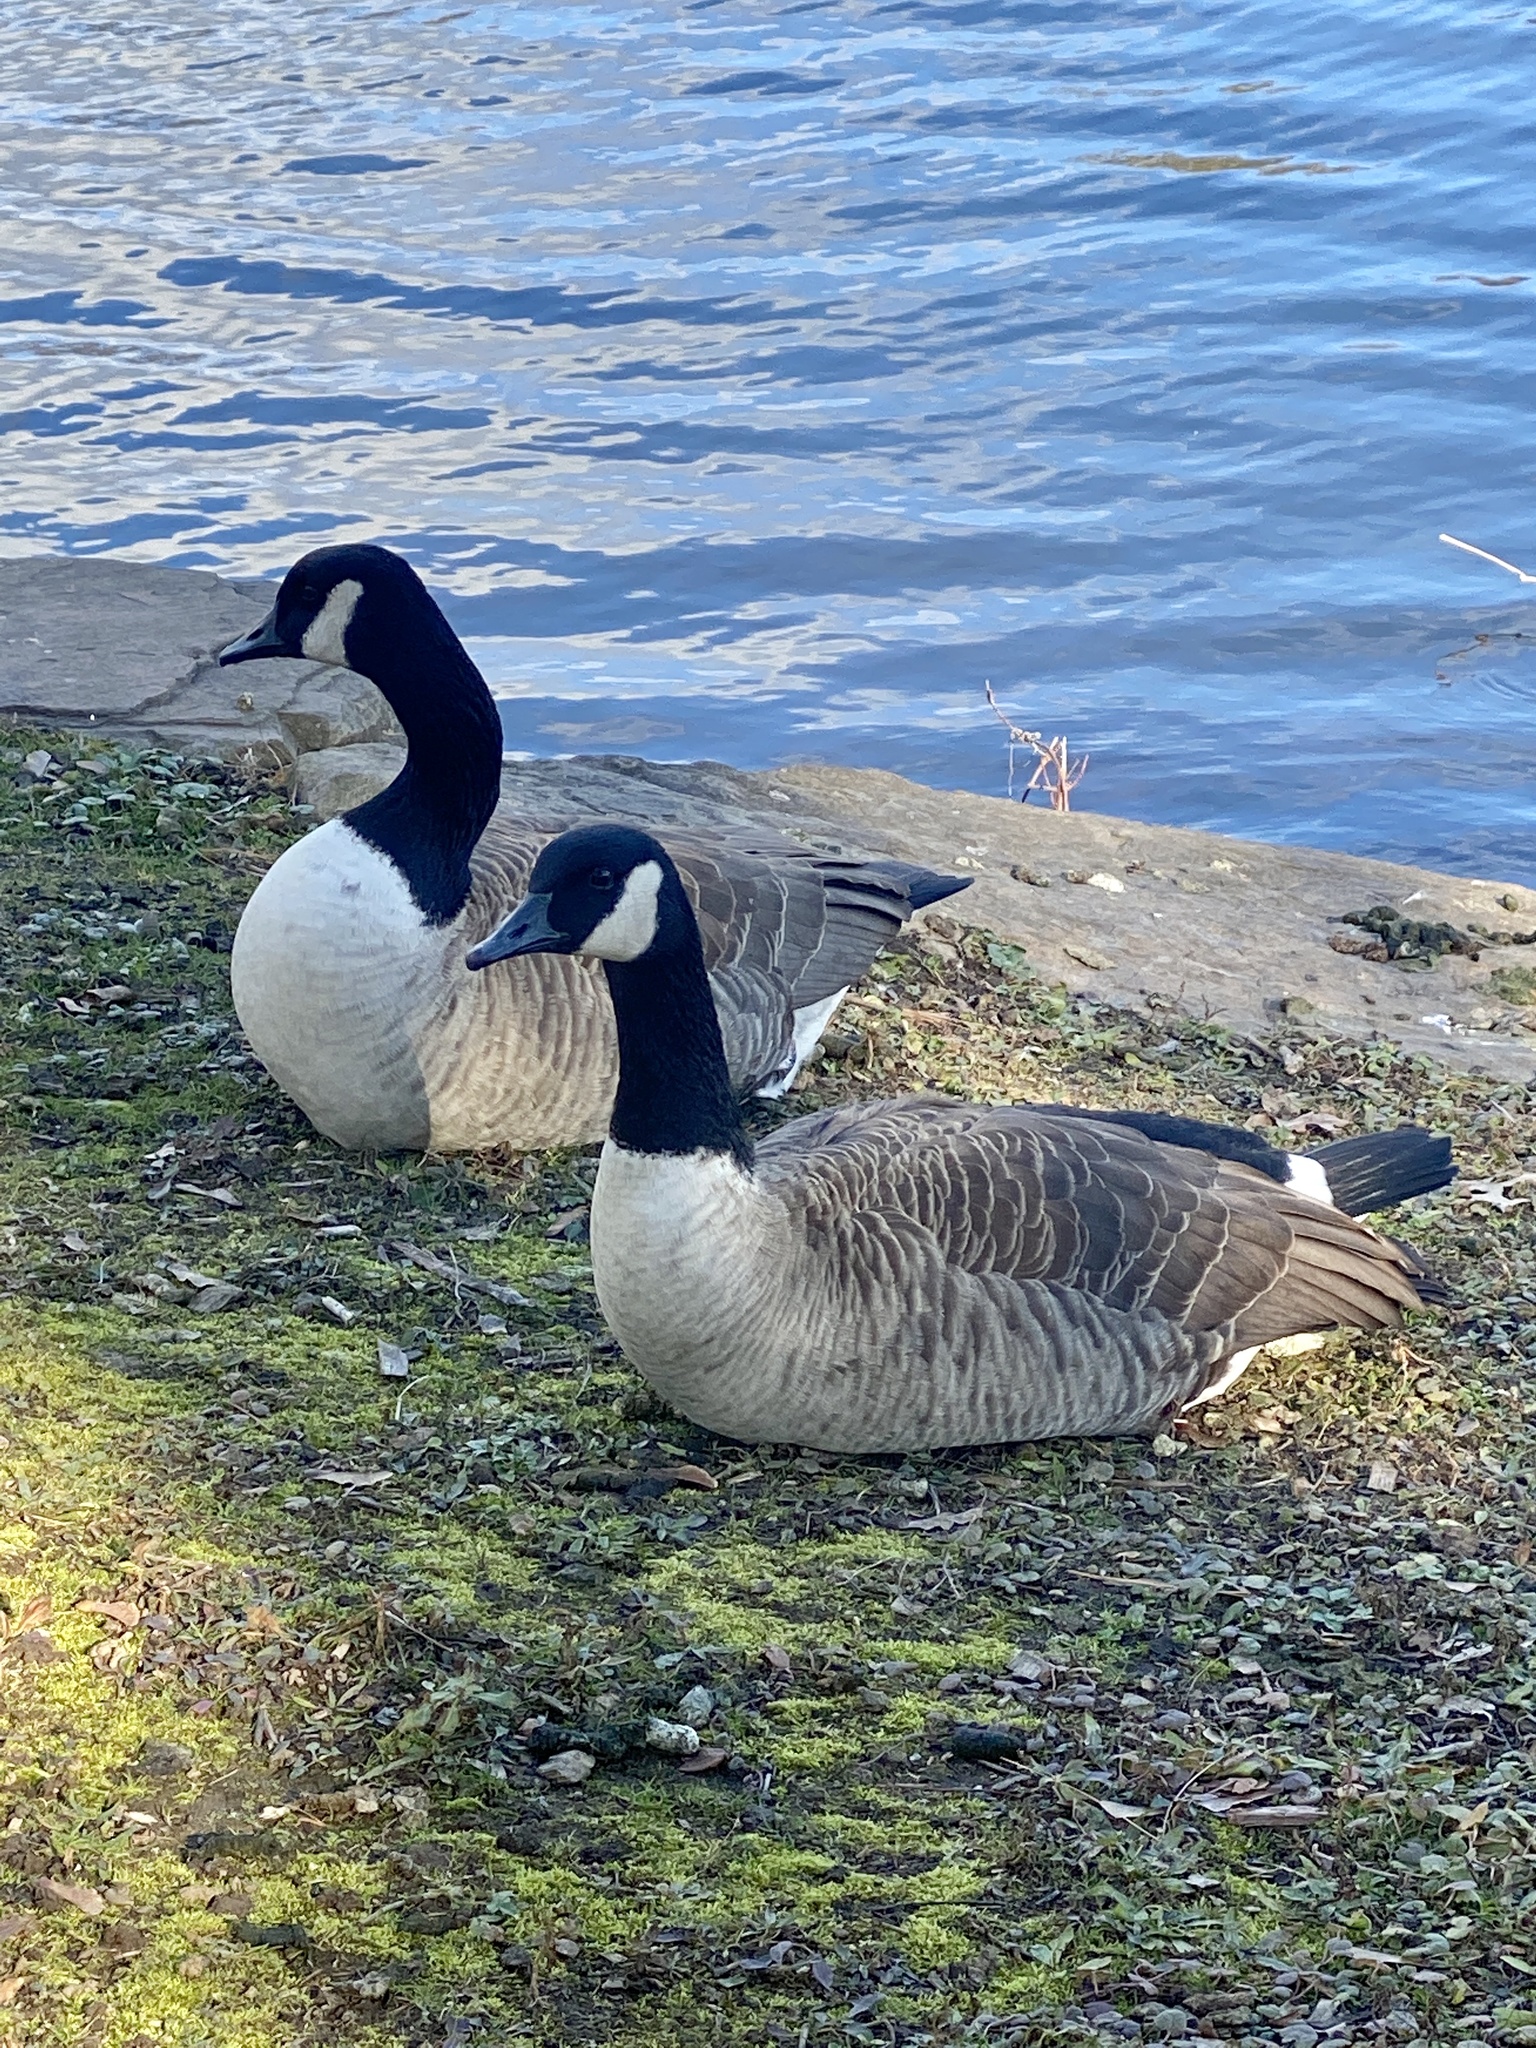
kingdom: Animalia
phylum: Chordata
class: Aves
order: Anseriformes
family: Anatidae
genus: Branta
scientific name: Branta canadensis
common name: Canada goose
